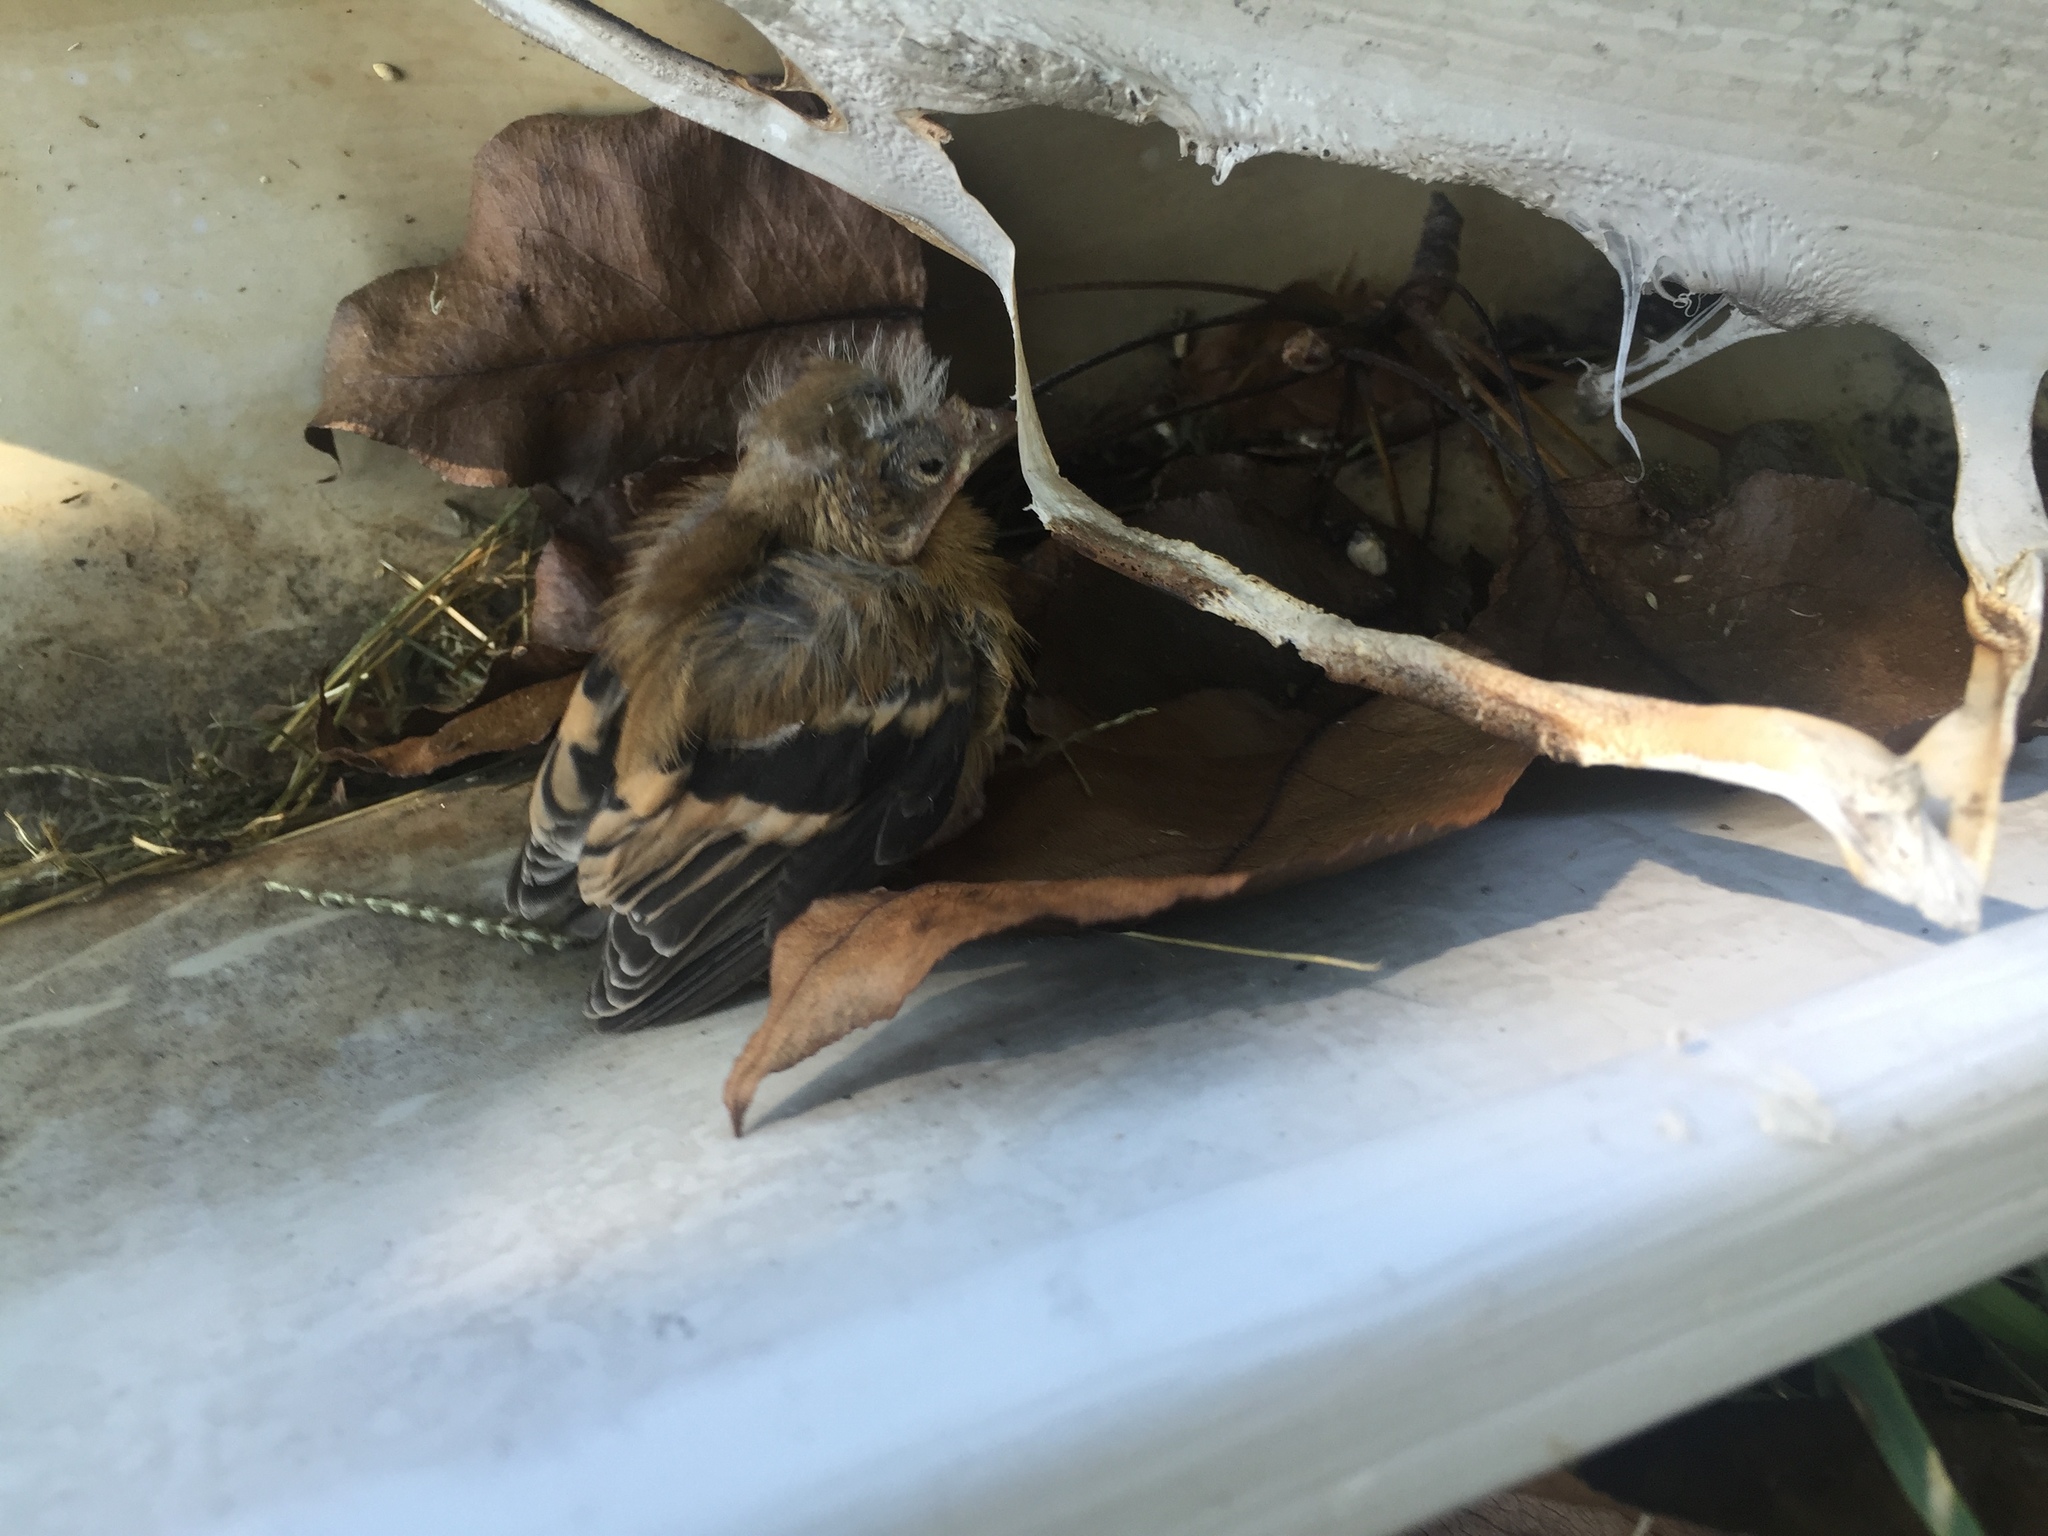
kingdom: Animalia
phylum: Chordata
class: Aves
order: Passeriformes
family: Fringillidae
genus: Spinus
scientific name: Spinus tristis
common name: American goldfinch
